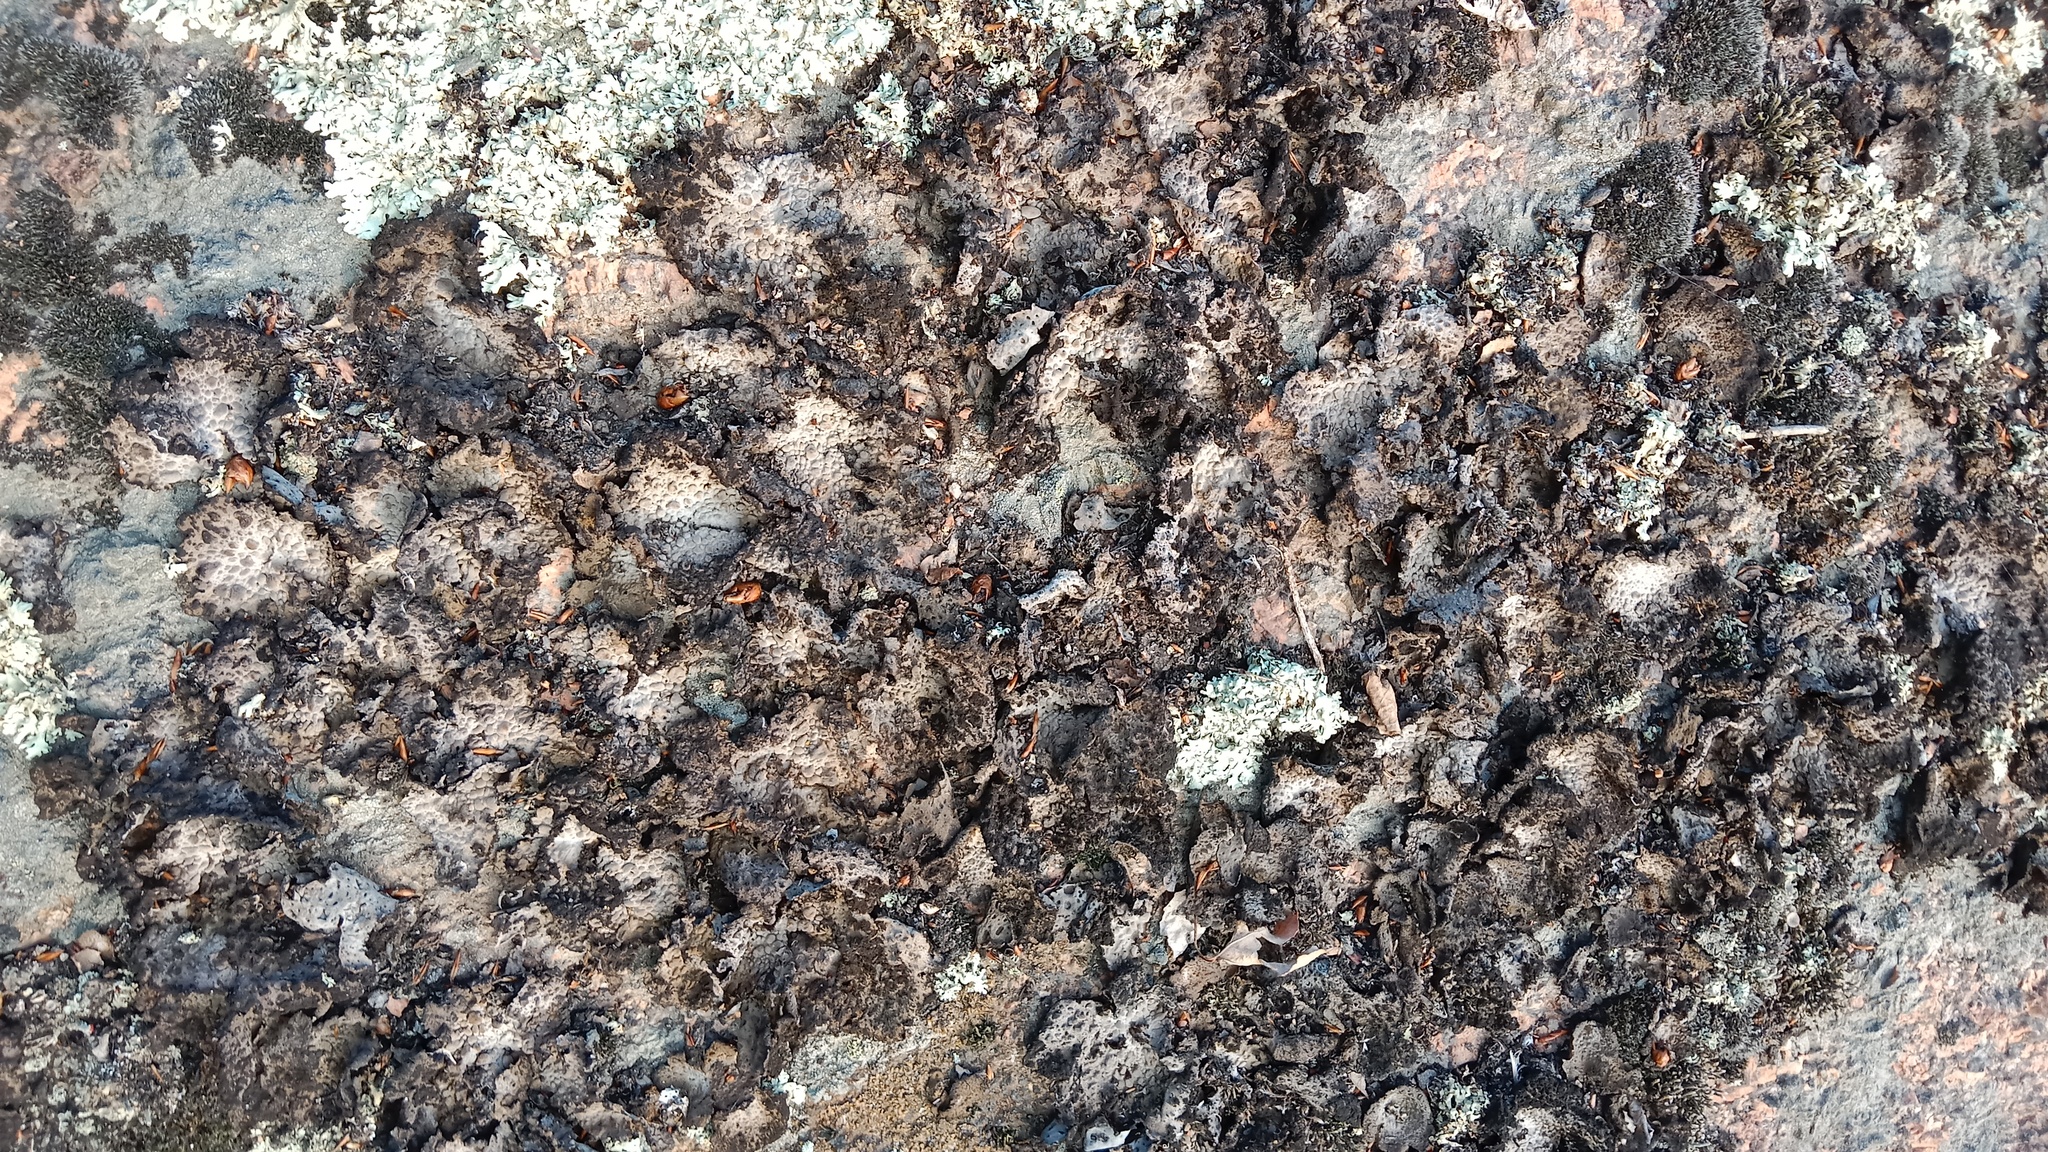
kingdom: Fungi
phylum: Ascomycota
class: Lecanoromycetes
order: Umbilicariales
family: Umbilicariaceae
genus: Lasallia
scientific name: Lasallia pustulata
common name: Blistered toadskin lichen
